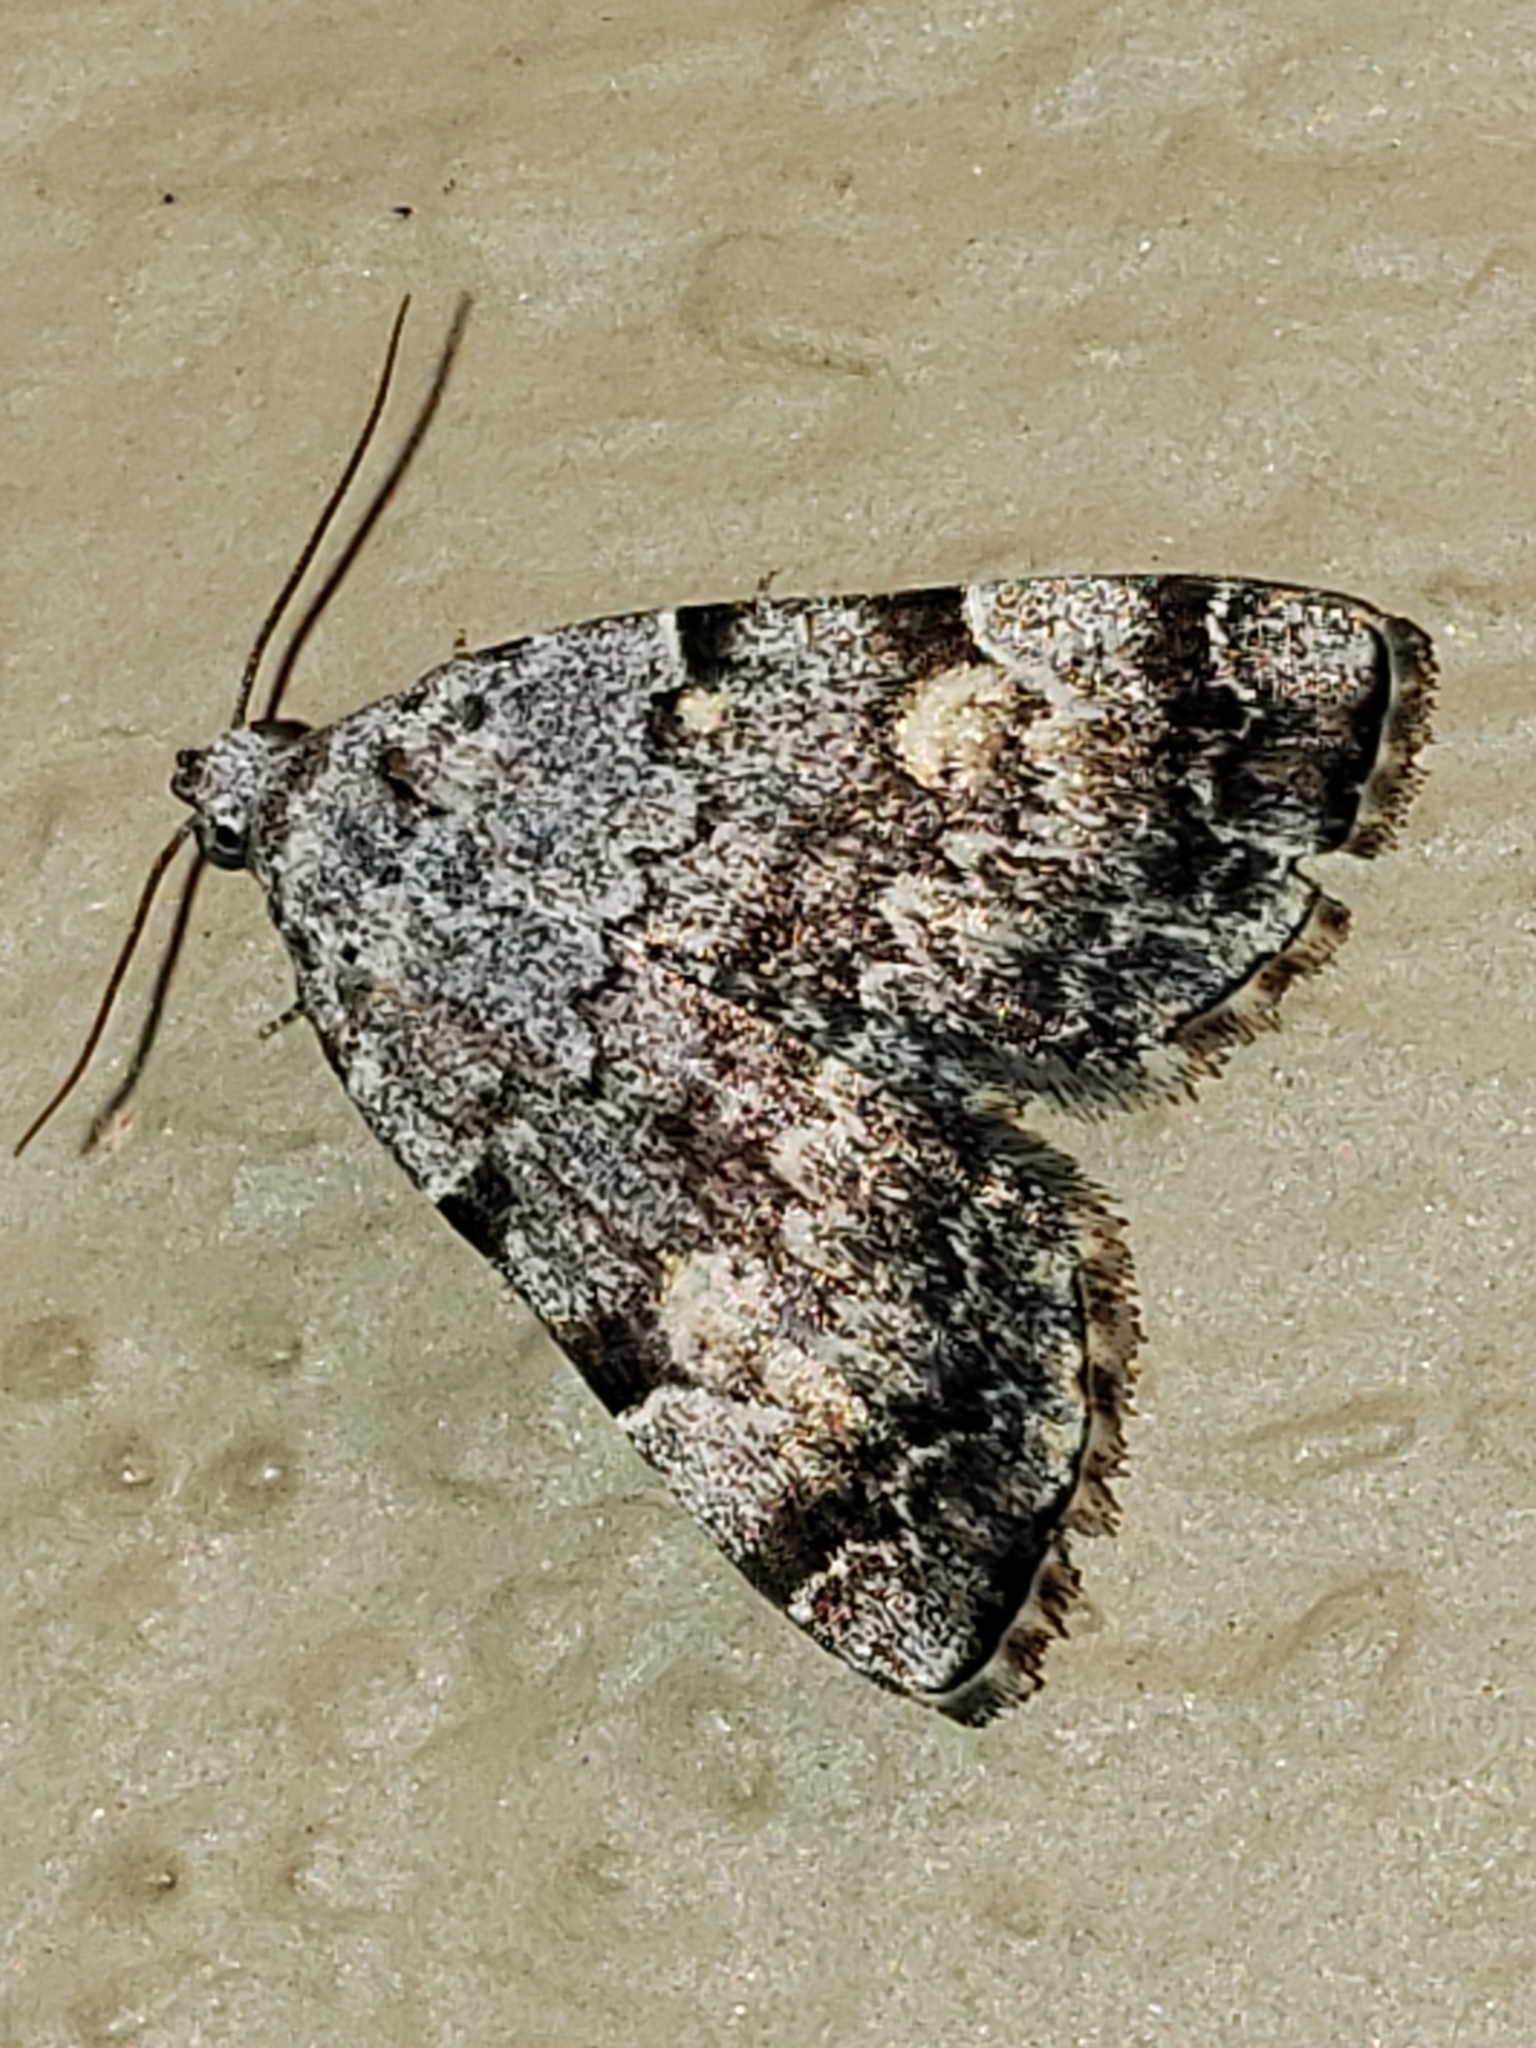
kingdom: Animalia
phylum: Arthropoda
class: Insecta
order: Lepidoptera
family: Erebidae
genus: Idia
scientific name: Idia americalis
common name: American idia moth
